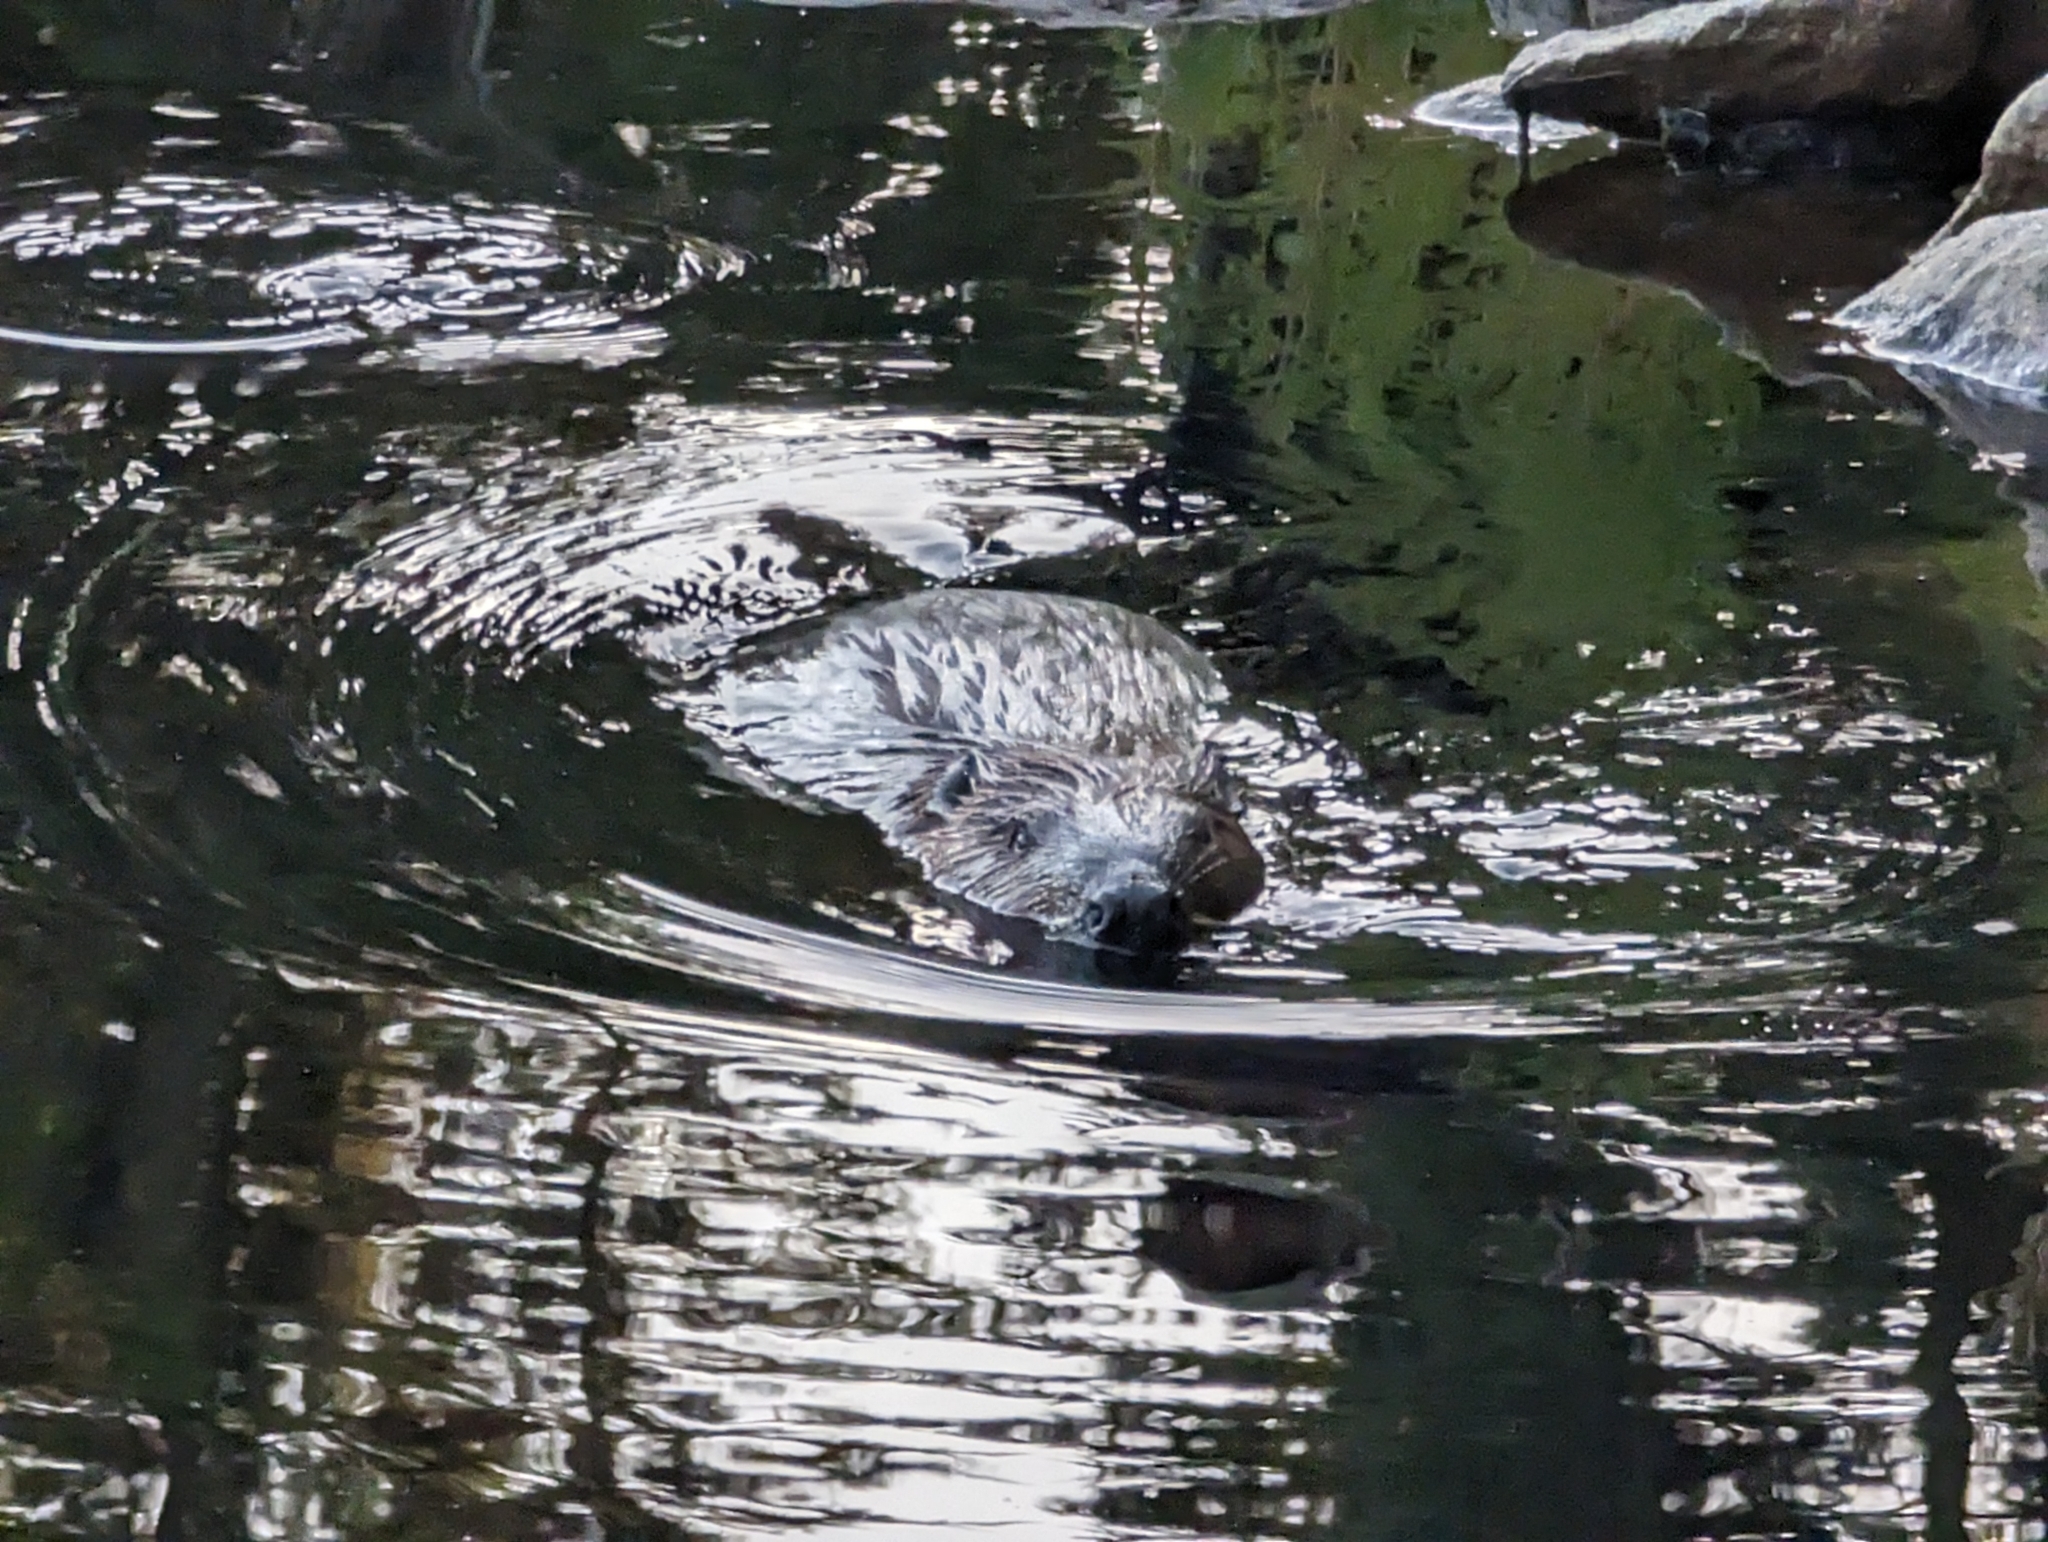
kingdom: Animalia
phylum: Chordata
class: Mammalia
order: Rodentia
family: Castoridae
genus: Castor
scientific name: Castor canadensis
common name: American beaver
